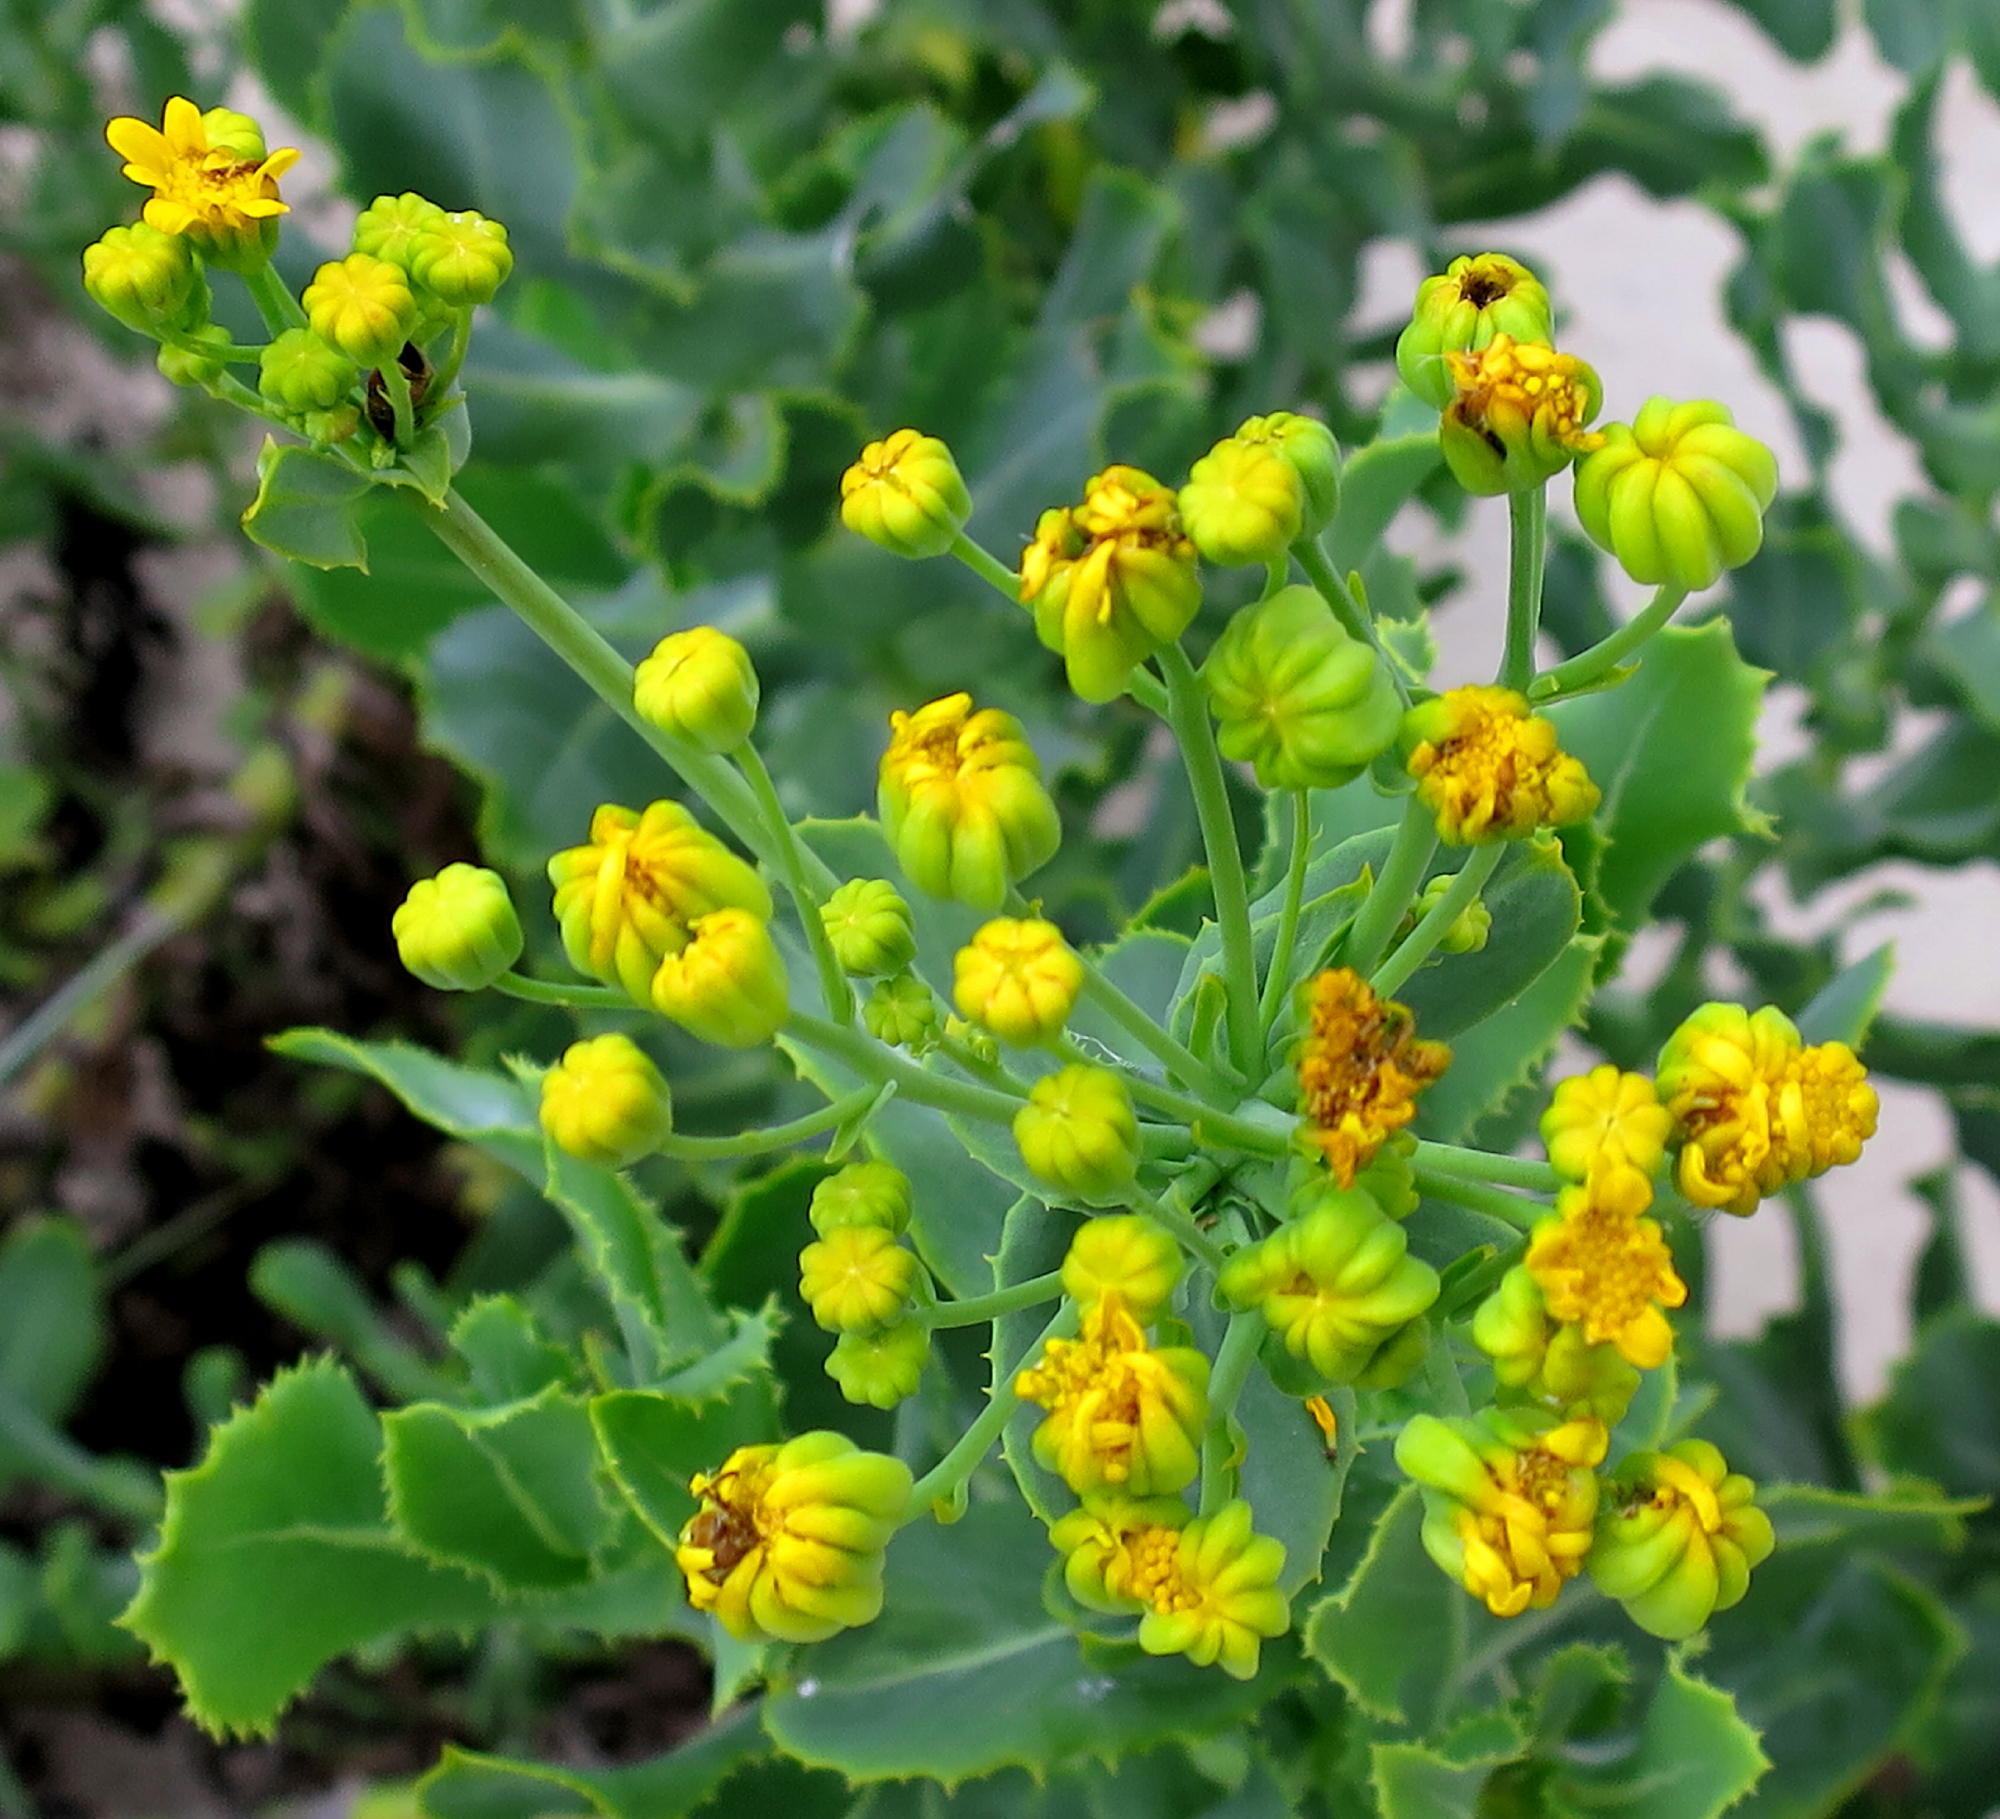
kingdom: Plantae
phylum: Tracheophyta
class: Magnoliopsida
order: Asterales
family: Asteraceae
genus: Othonna
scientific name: Othonna parviflora
